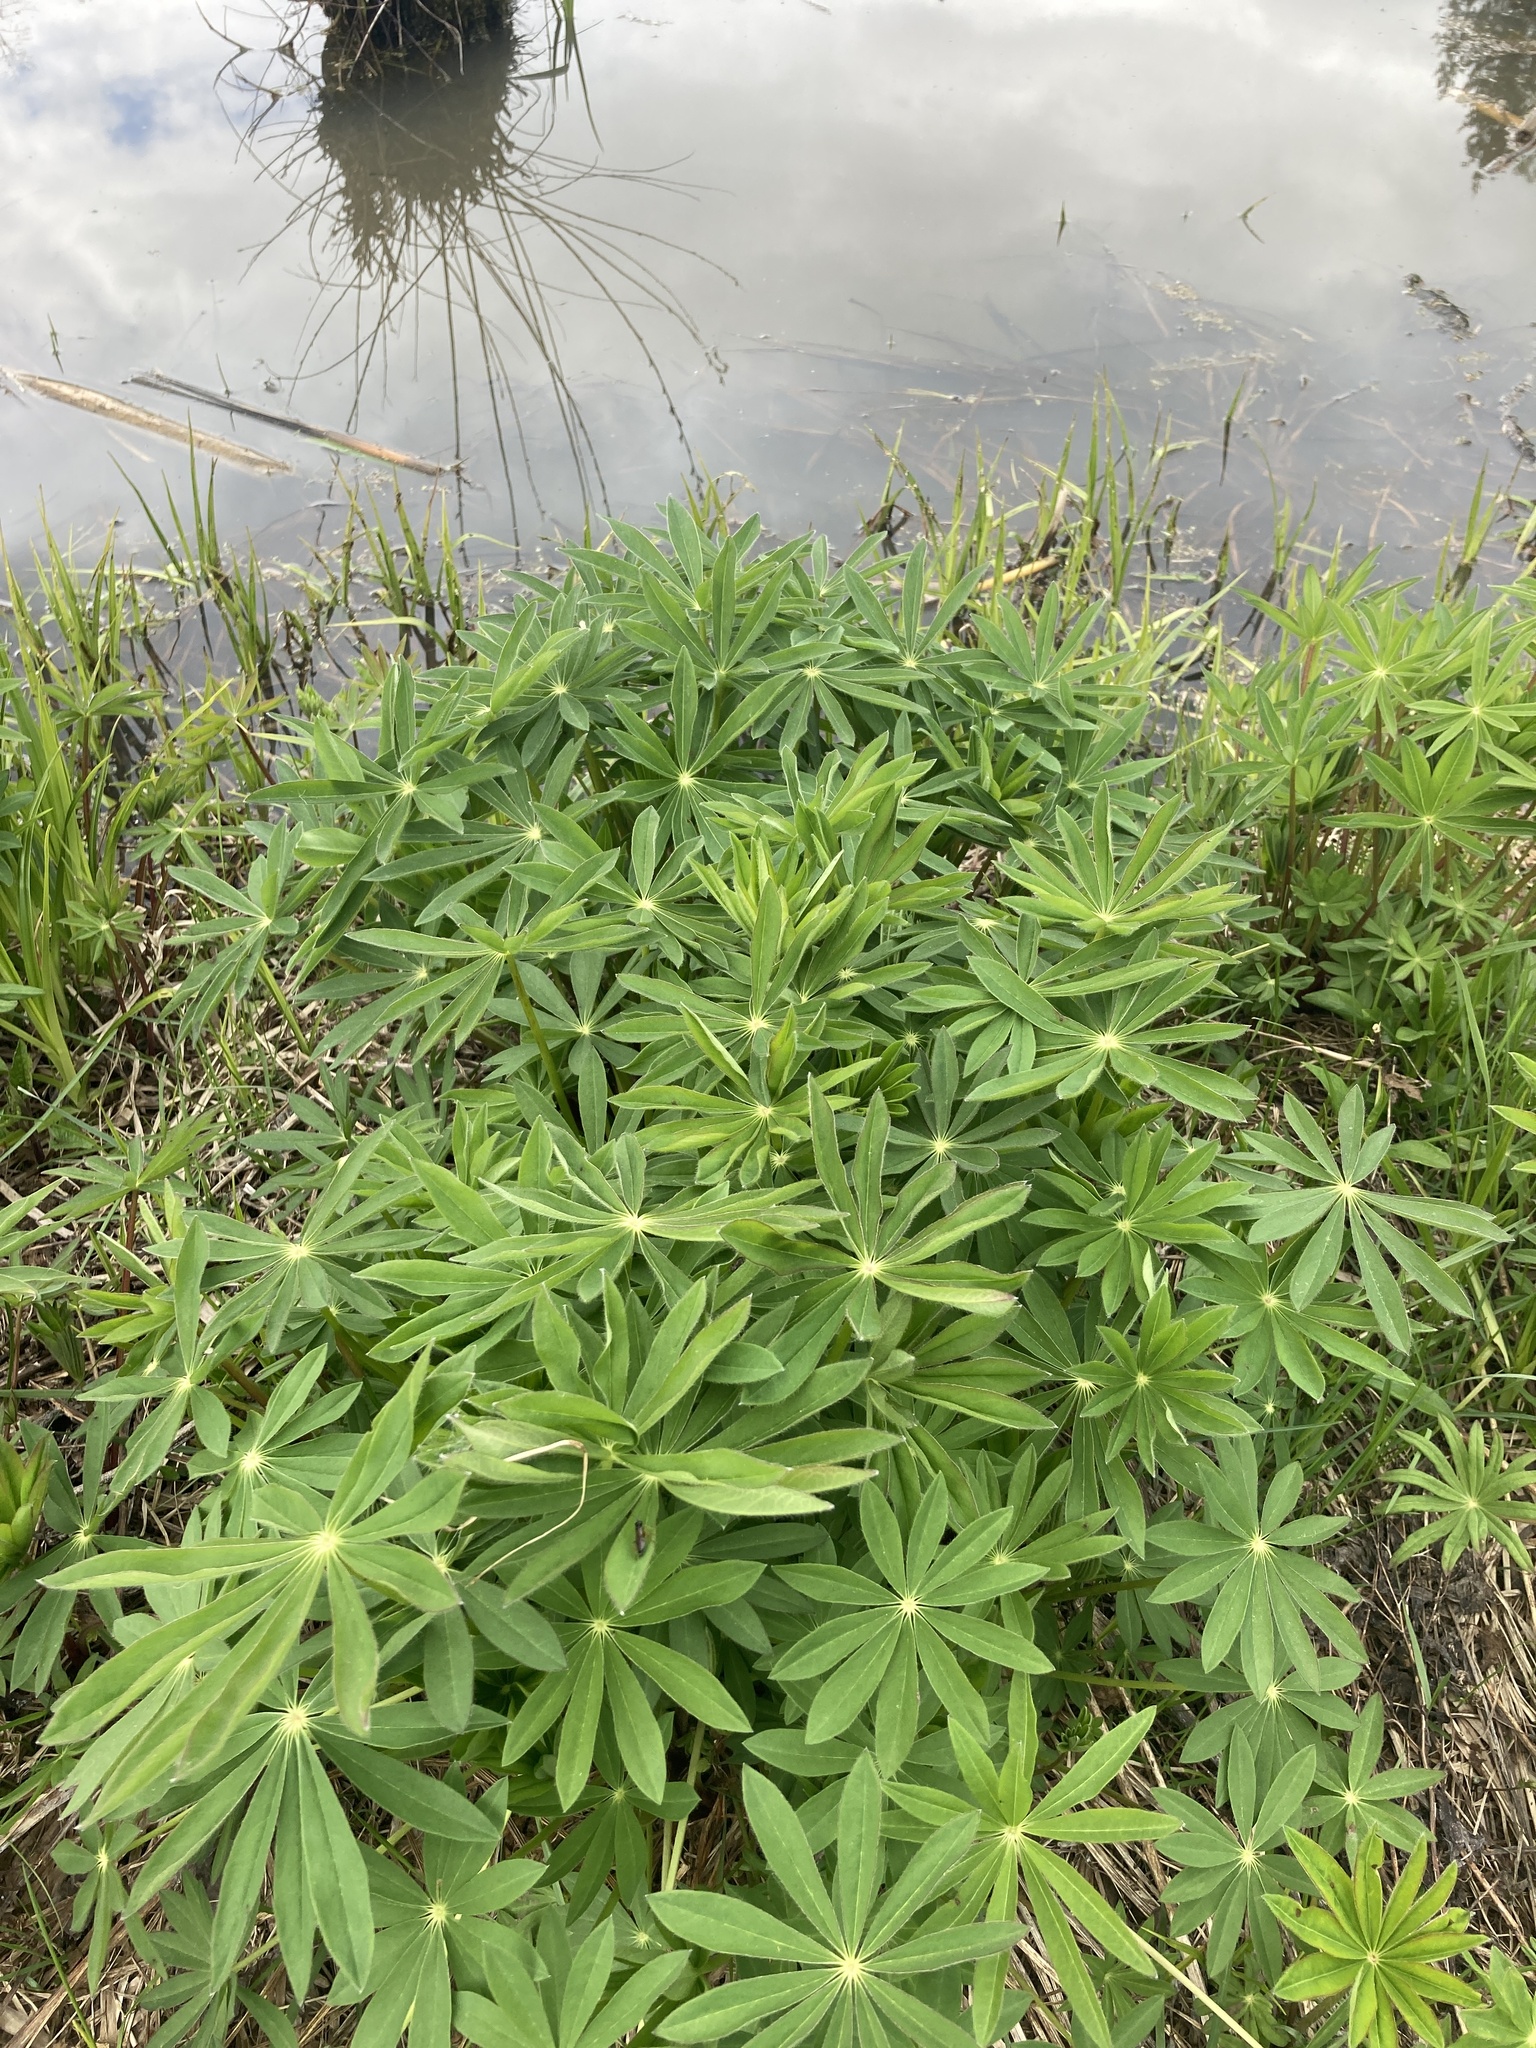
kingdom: Plantae
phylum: Tracheophyta
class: Magnoliopsida
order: Fabales
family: Fabaceae
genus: Lupinus
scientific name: Lupinus polyphyllus
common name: Garden lupin
